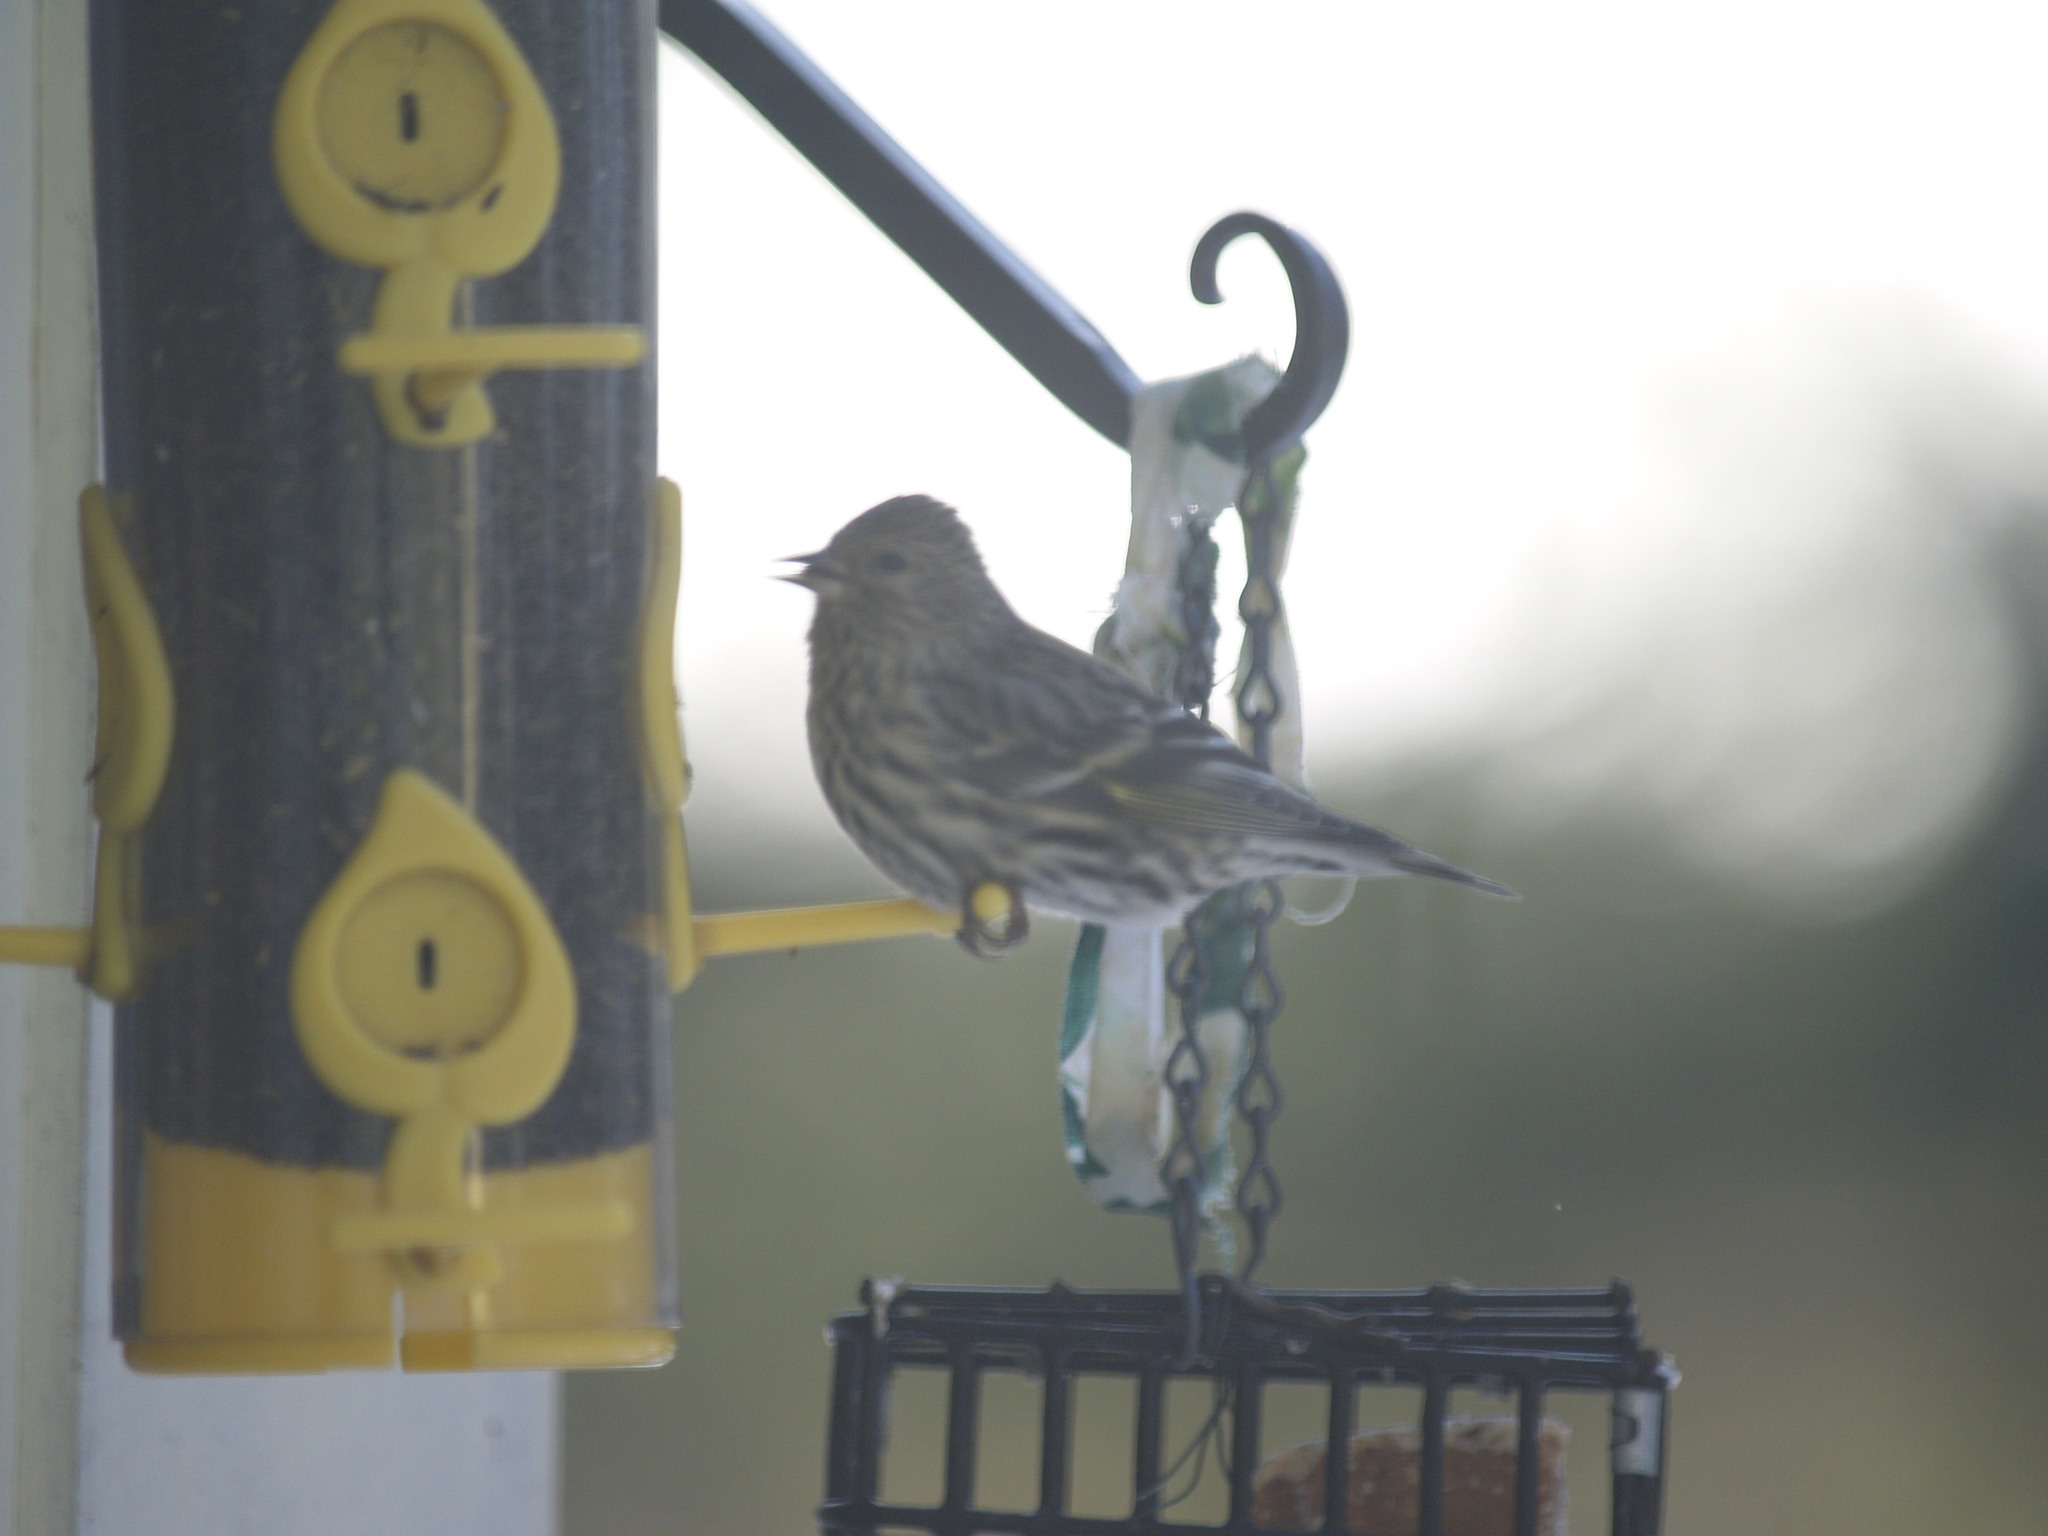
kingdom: Animalia
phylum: Chordata
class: Aves
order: Passeriformes
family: Fringillidae
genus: Spinus
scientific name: Spinus pinus
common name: Pine siskin
